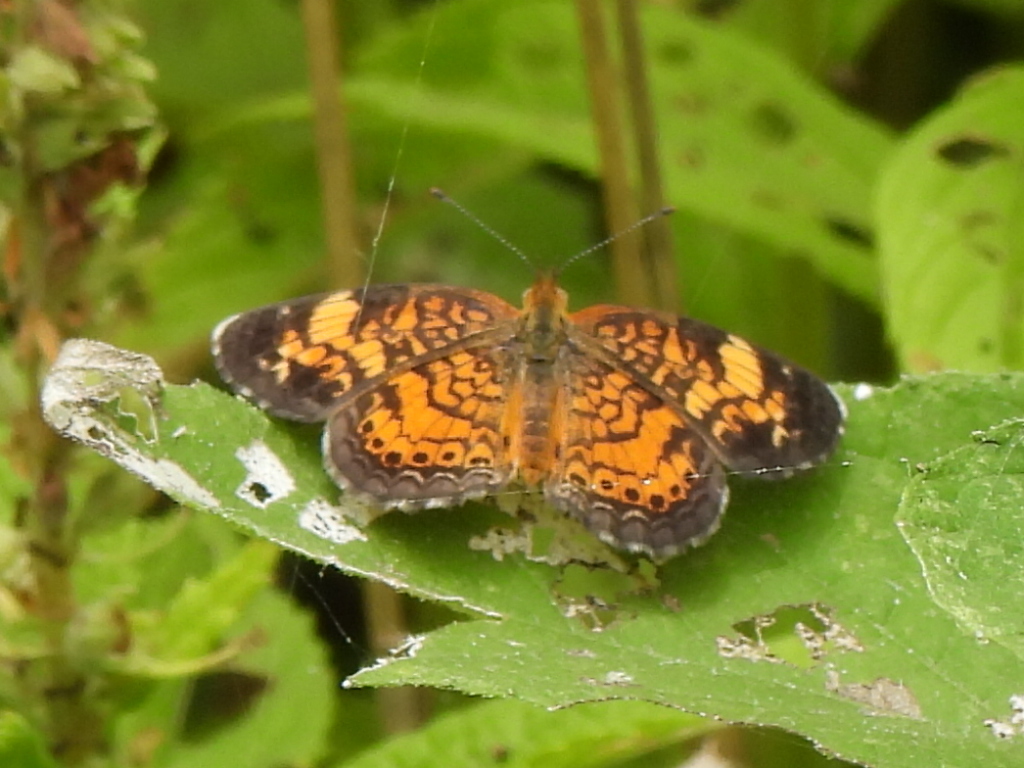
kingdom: Animalia
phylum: Arthropoda
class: Insecta
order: Lepidoptera
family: Nymphalidae
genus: Phyciodes
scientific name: Phyciodes tharos
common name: Pearl crescent
